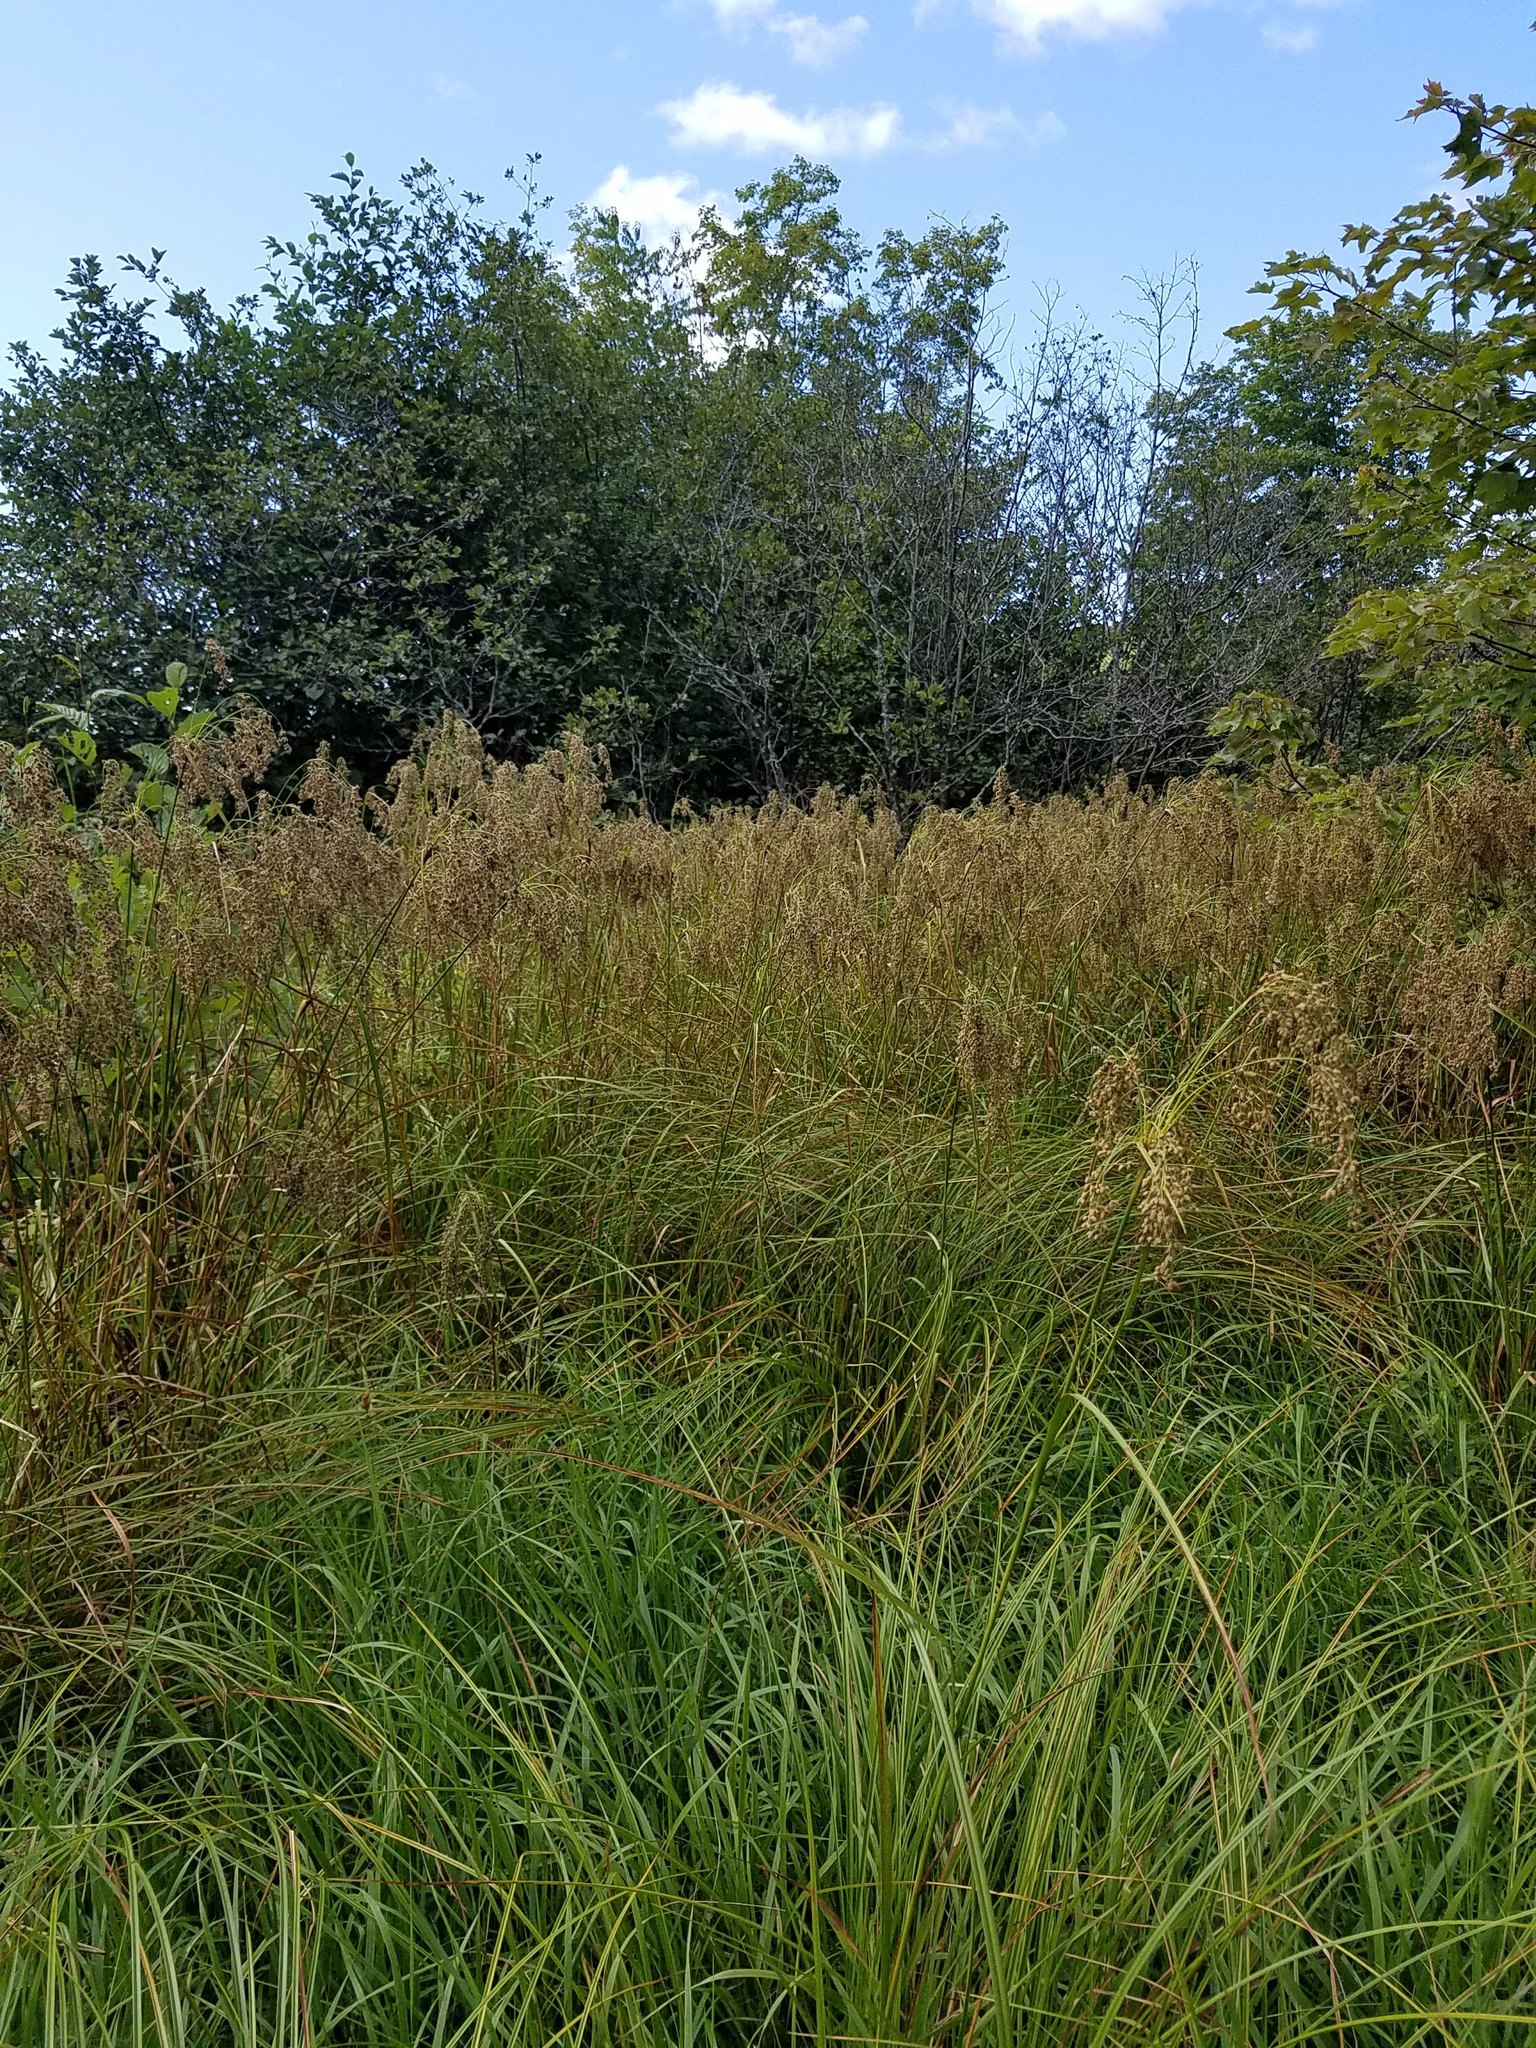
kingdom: Plantae
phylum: Tracheophyta
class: Liliopsida
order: Poales
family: Cyperaceae
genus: Scirpus
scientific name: Scirpus cyperinus
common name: Black-sheathed bulrush
